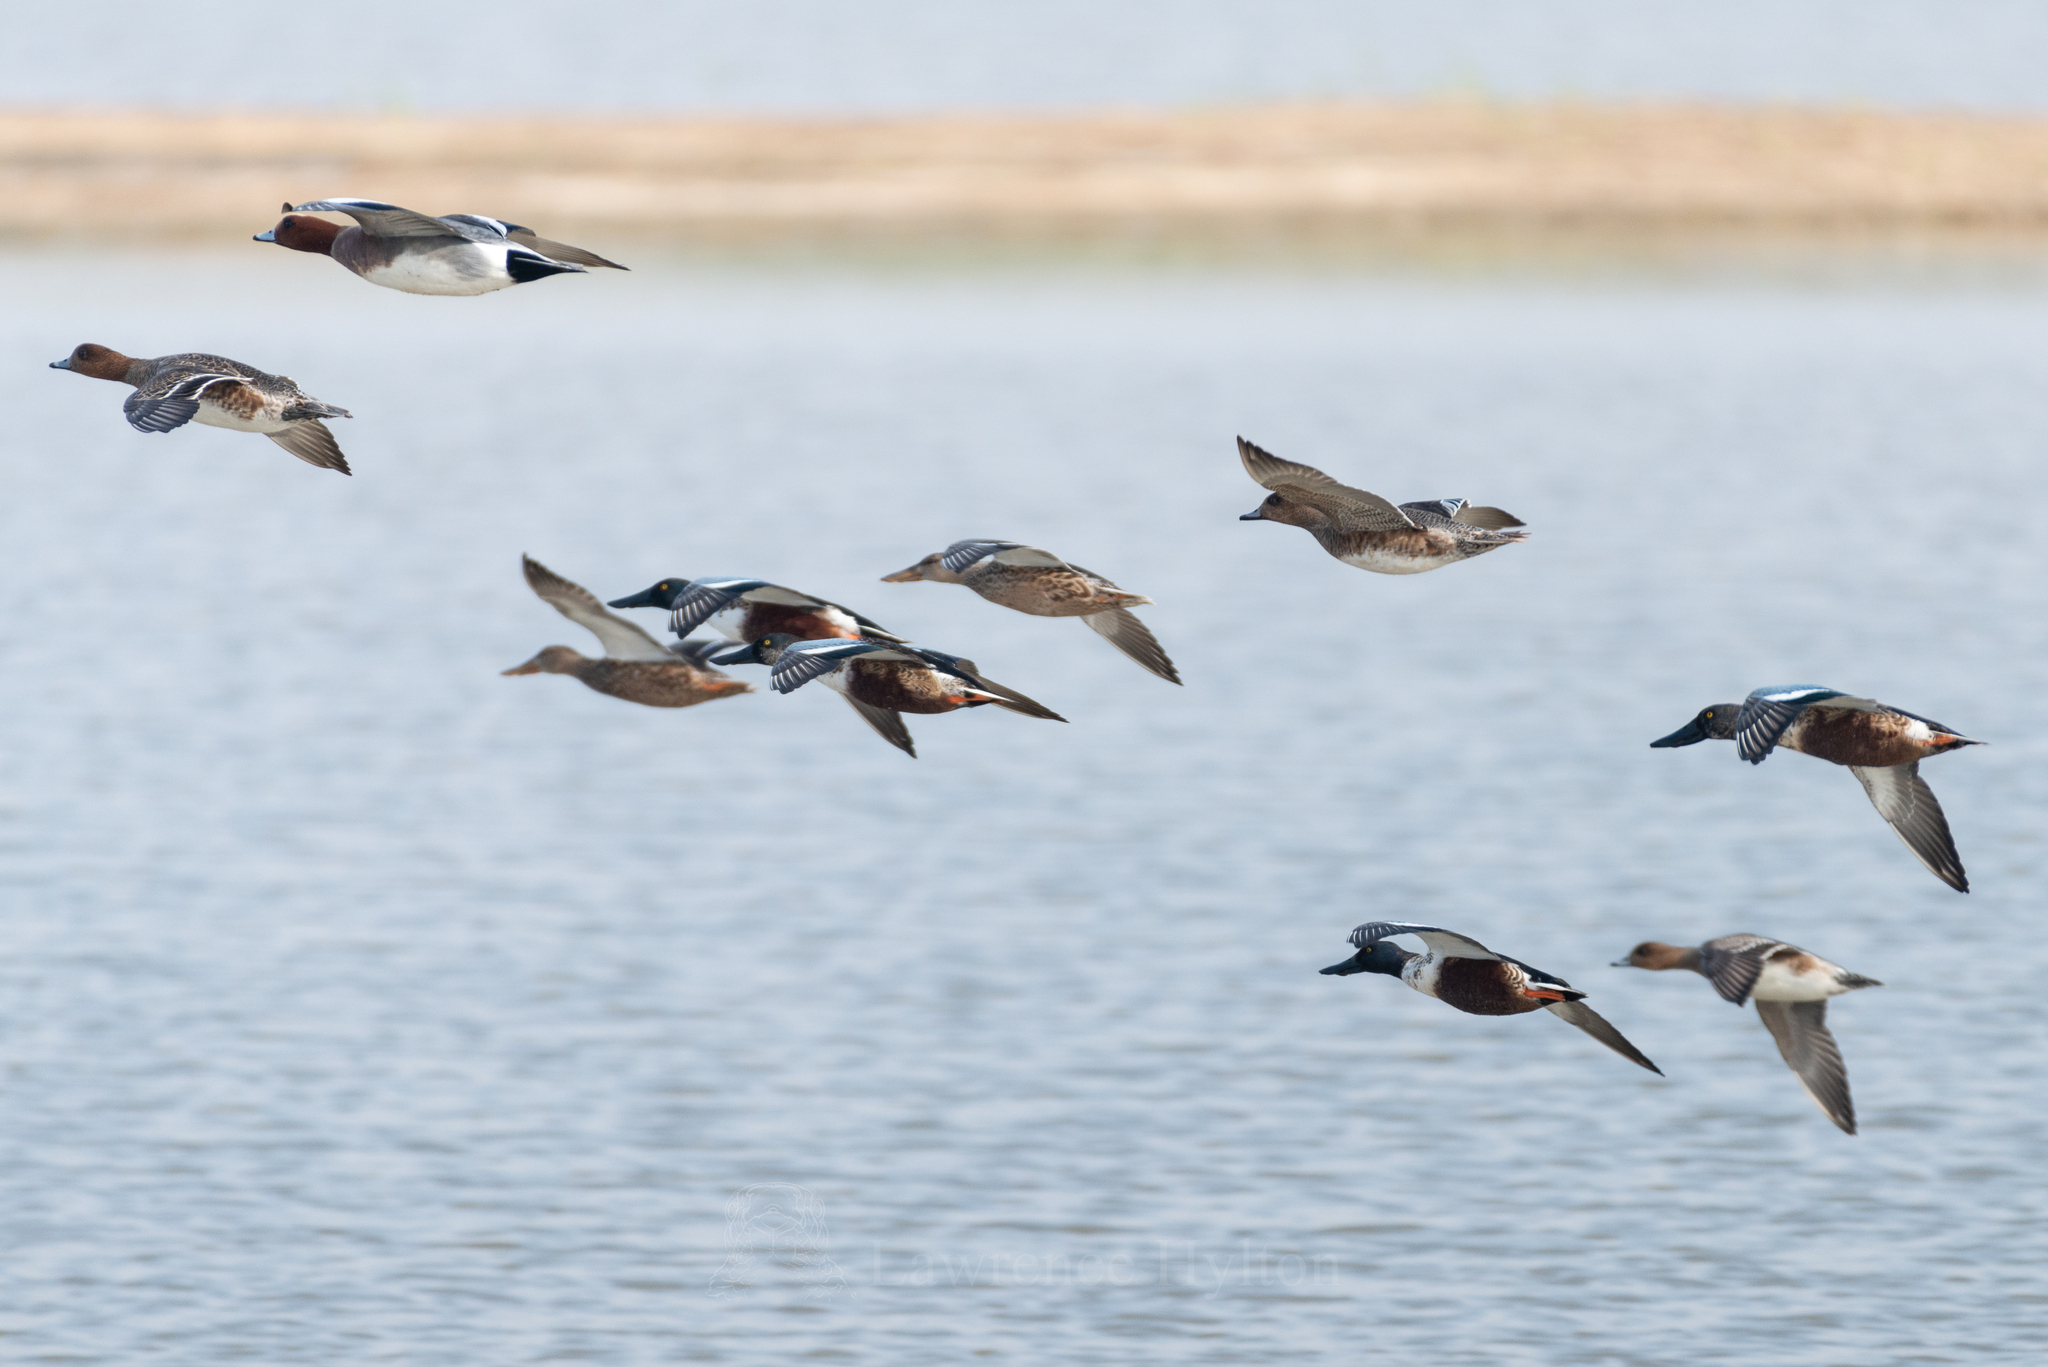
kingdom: Animalia
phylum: Chordata
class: Aves
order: Anseriformes
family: Anatidae
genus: Spatula
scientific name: Spatula clypeata
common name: Northern shoveler
